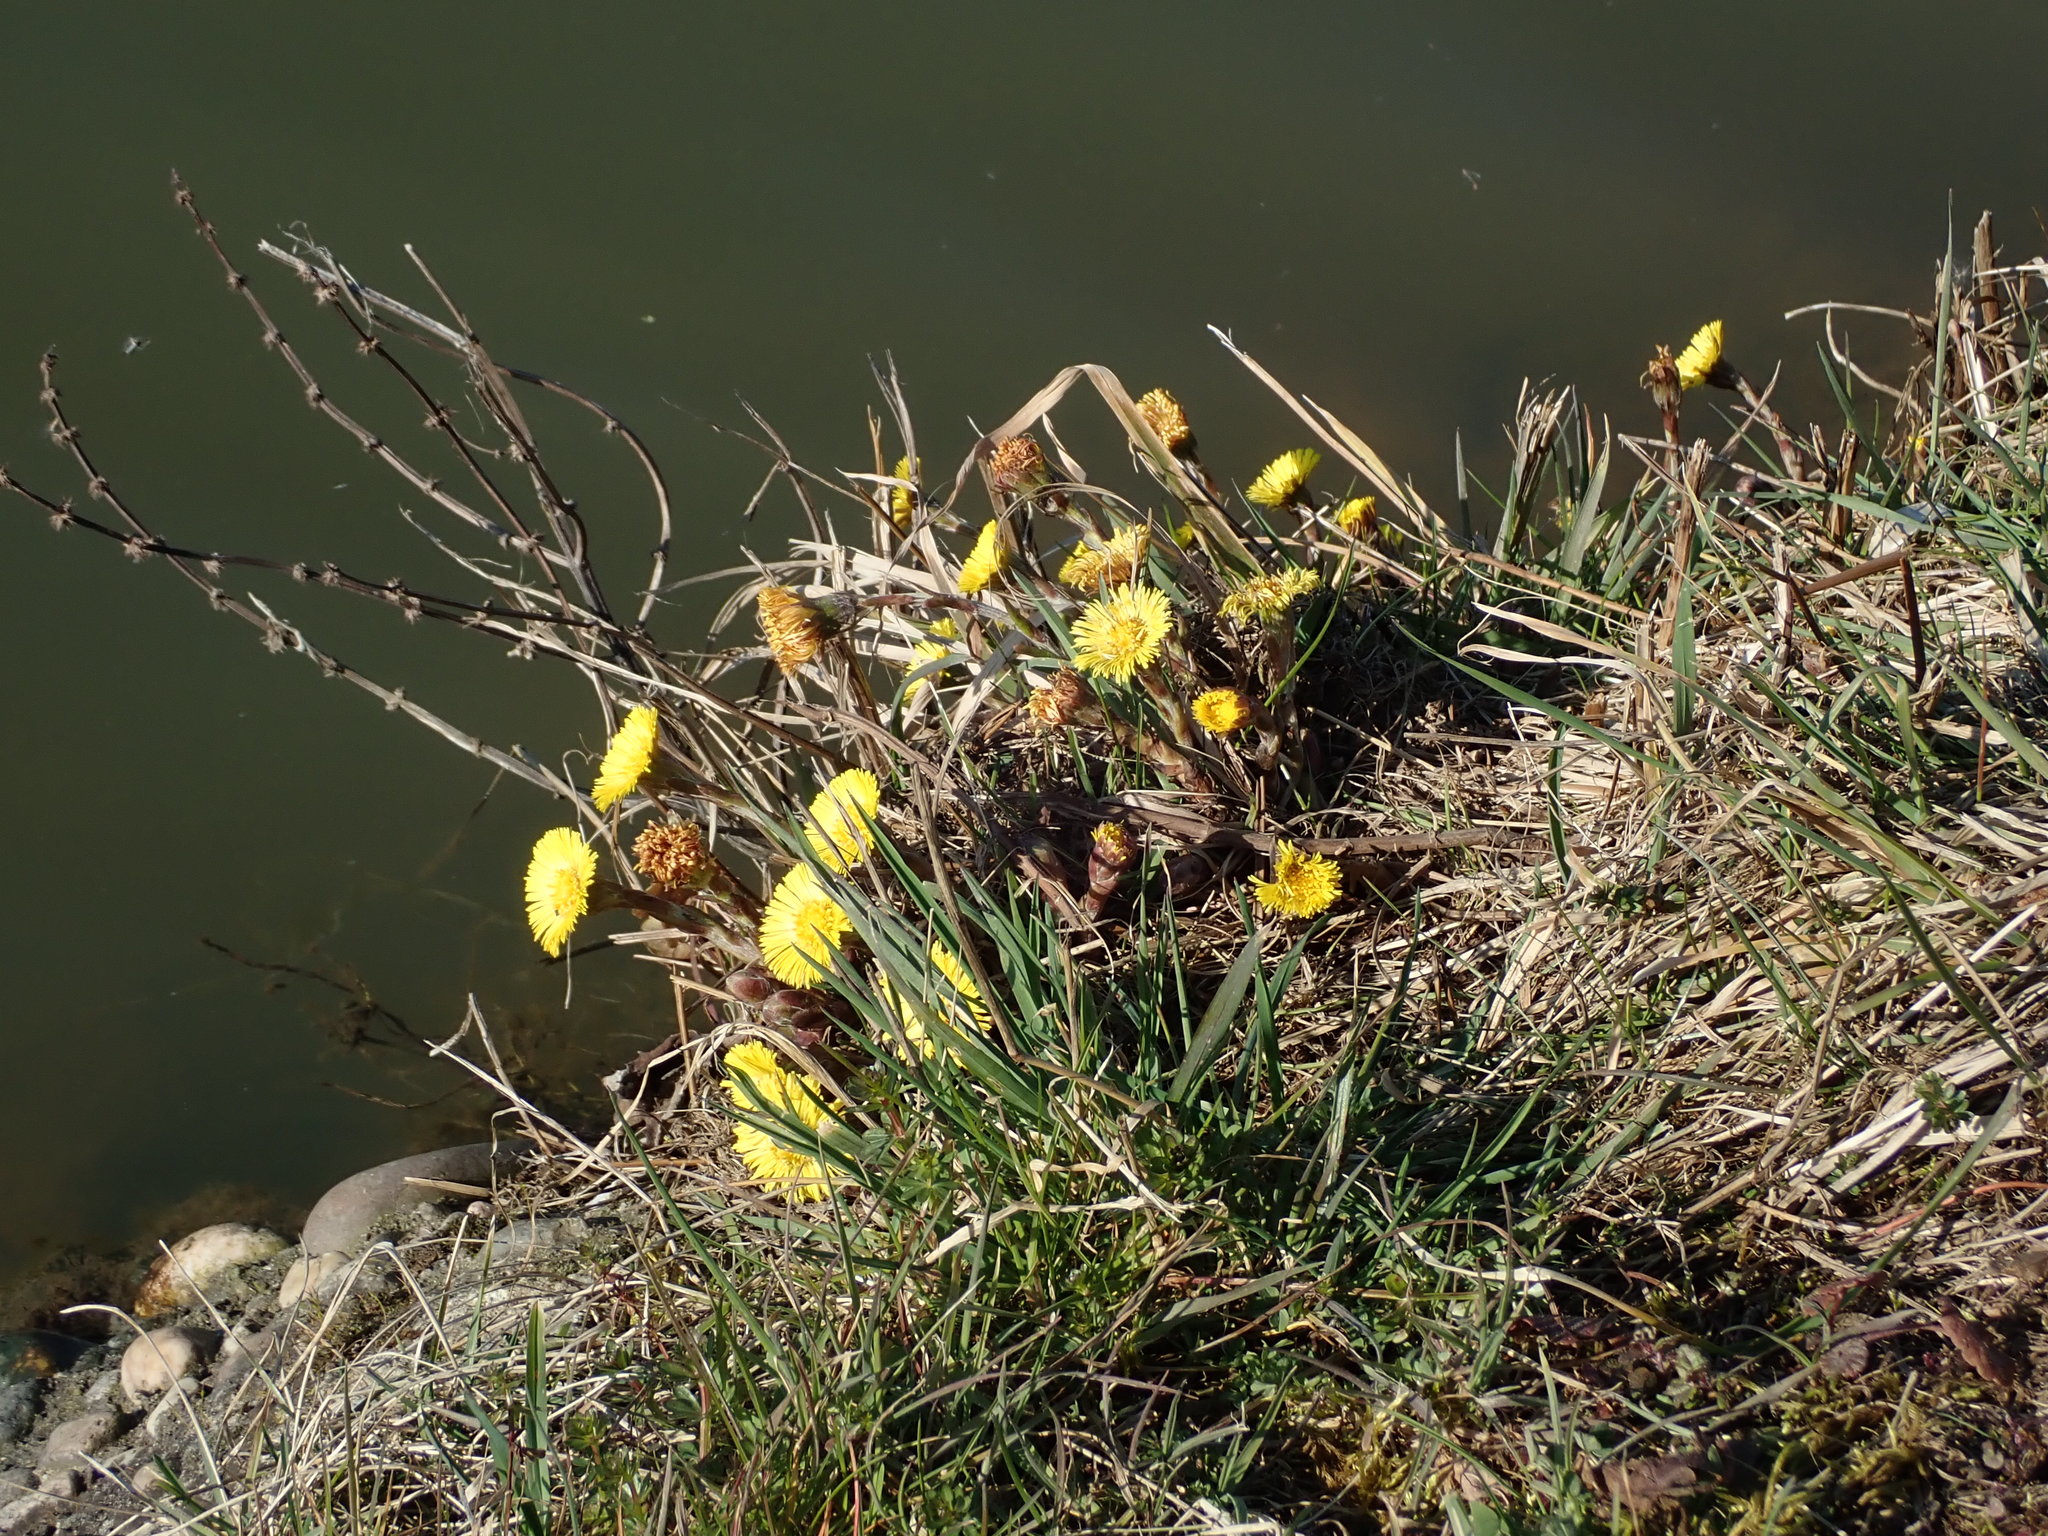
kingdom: Plantae
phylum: Tracheophyta
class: Magnoliopsida
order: Asterales
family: Asteraceae
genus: Tussilago
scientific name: Tussilago farfara
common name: Coltsfoot
